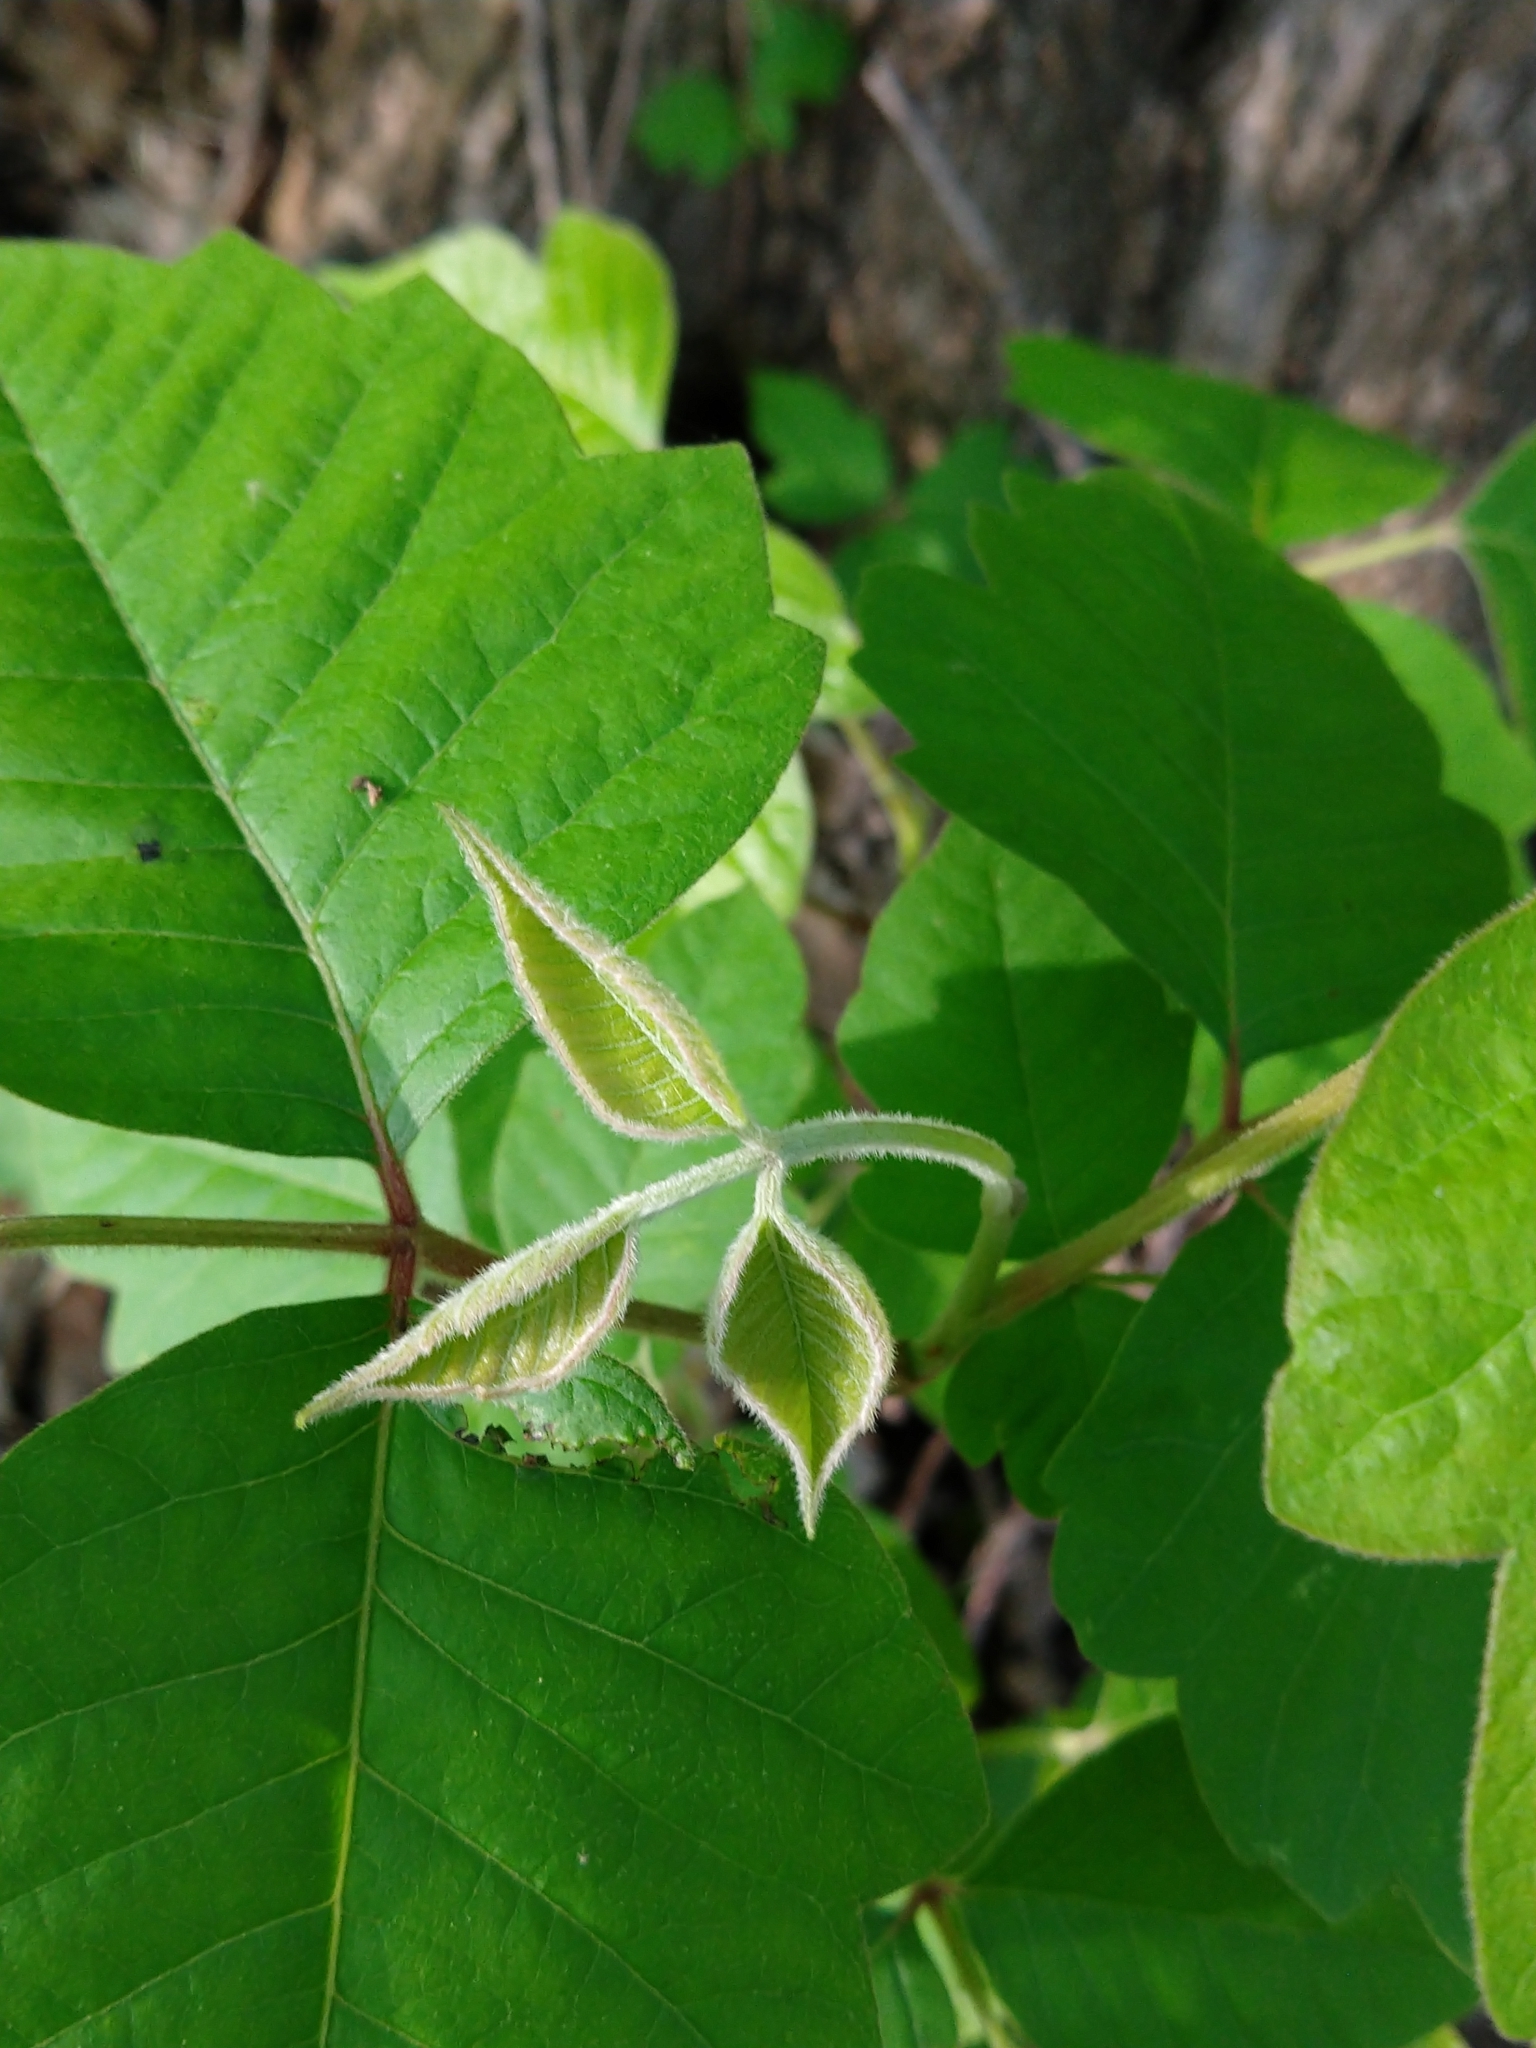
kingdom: Plantae
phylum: Tracheophyta
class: Magnoliopsida
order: Sapindales
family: Anacardiaceae
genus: Toxicodendron
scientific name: Toxicodendron radicans
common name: Poison ivy
